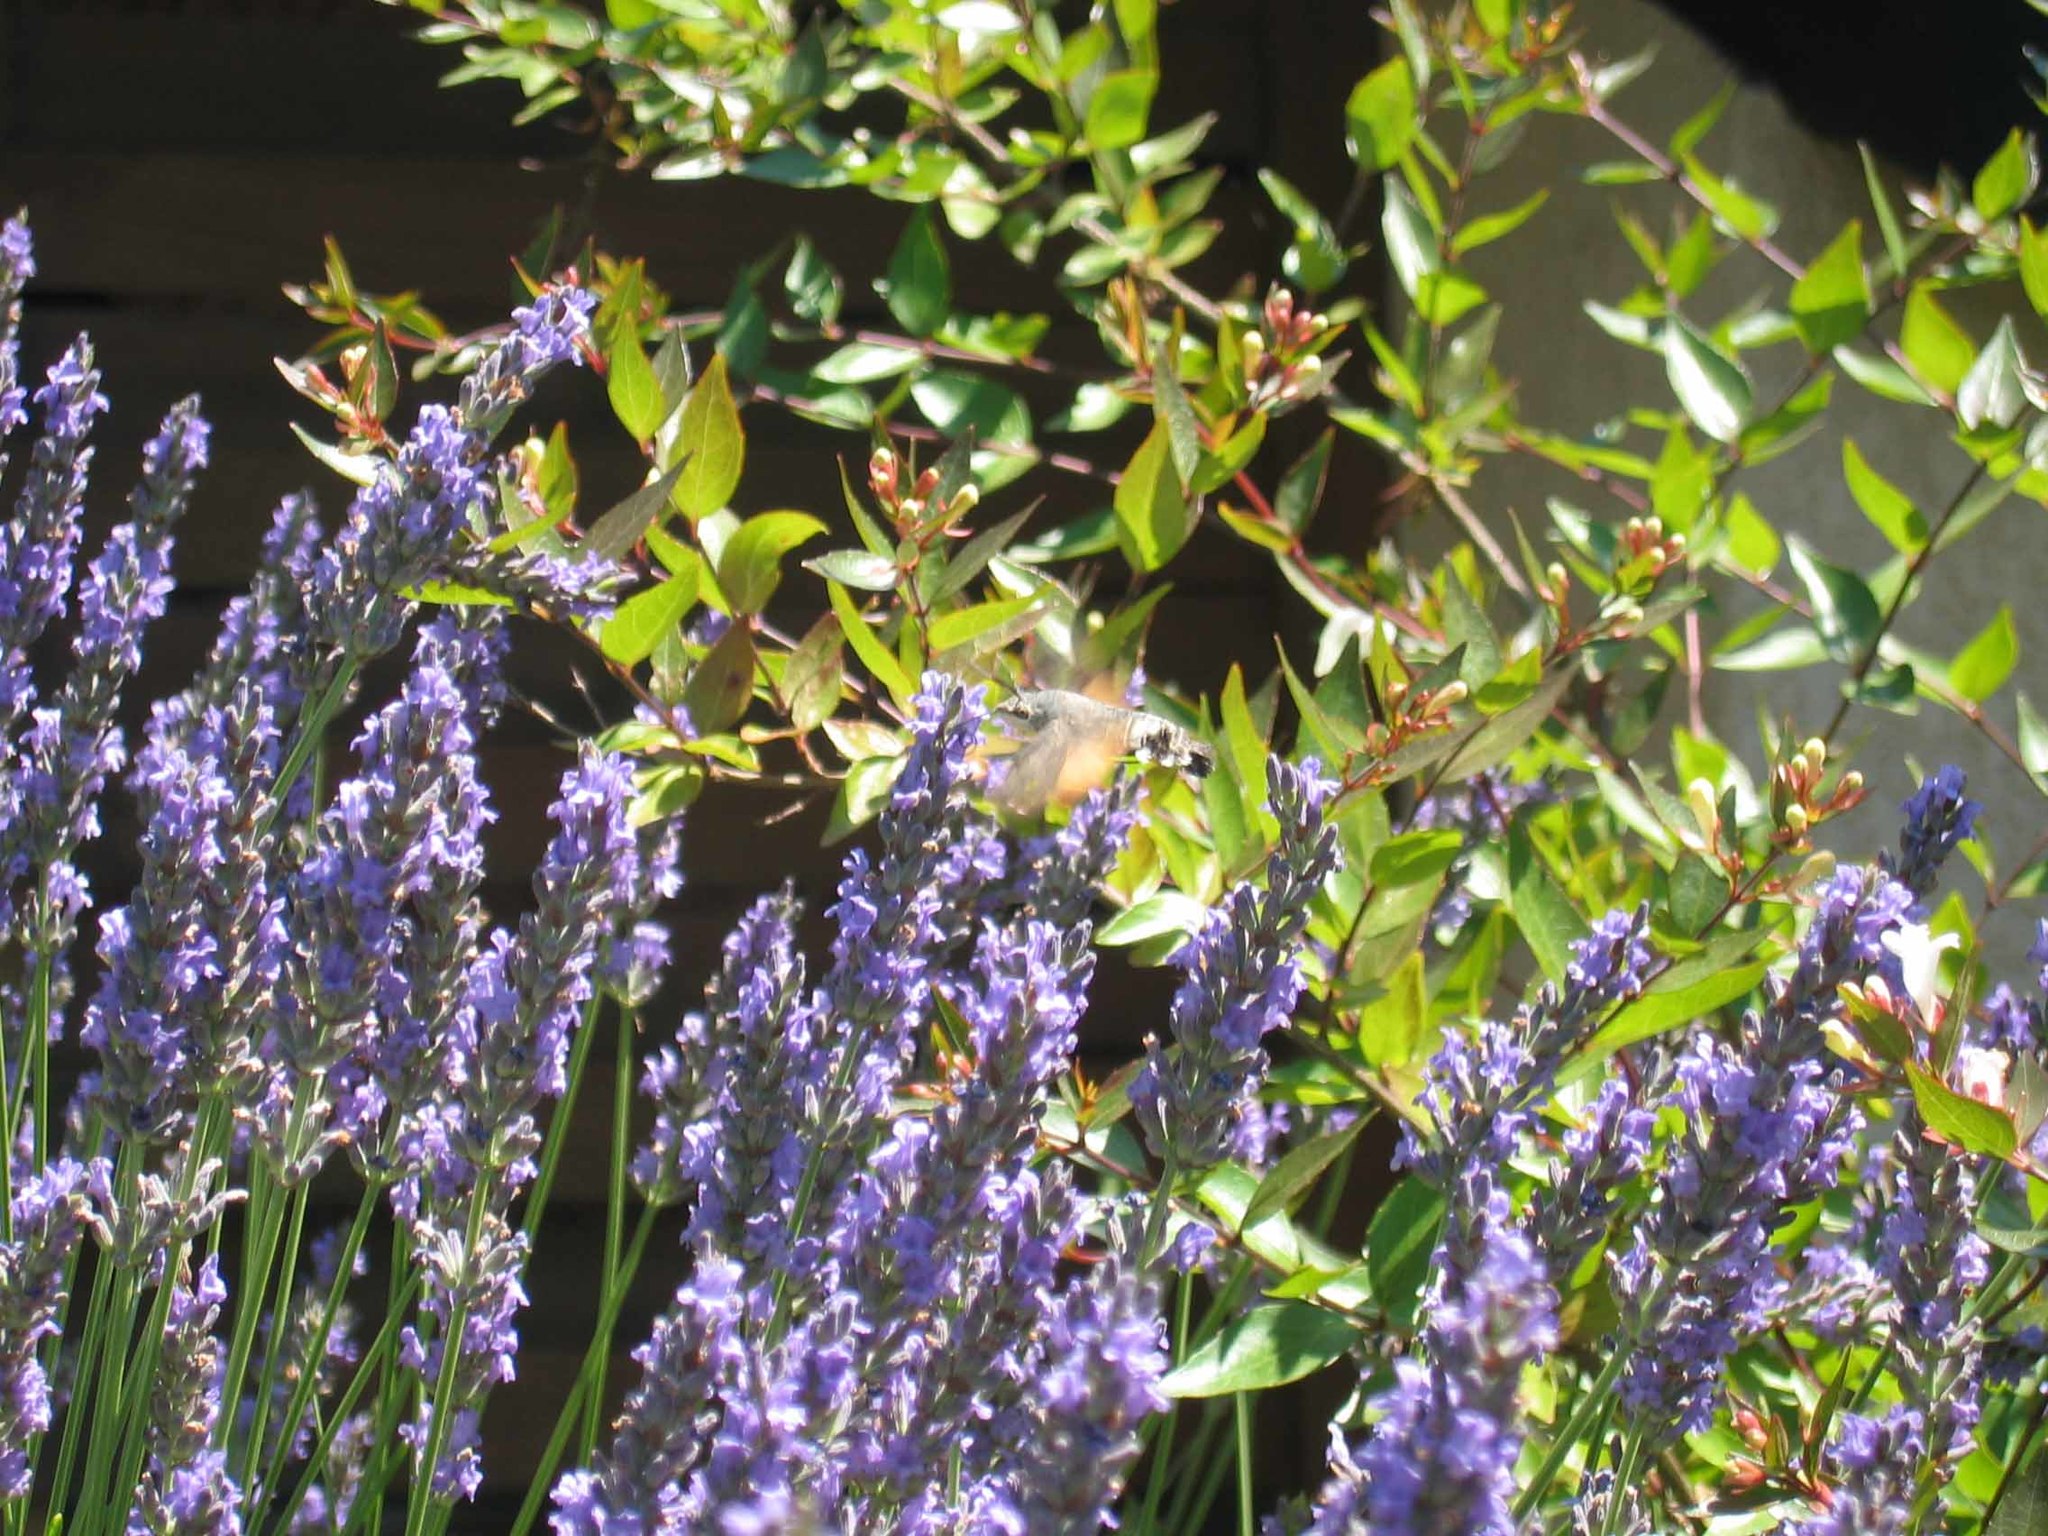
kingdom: Animalia
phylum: Arthropoda
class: Insecta
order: Lepidoptera
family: Sphingidae
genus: Macroglossum
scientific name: Macroglossum stellatarum
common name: Humming-bird hawk-moth
